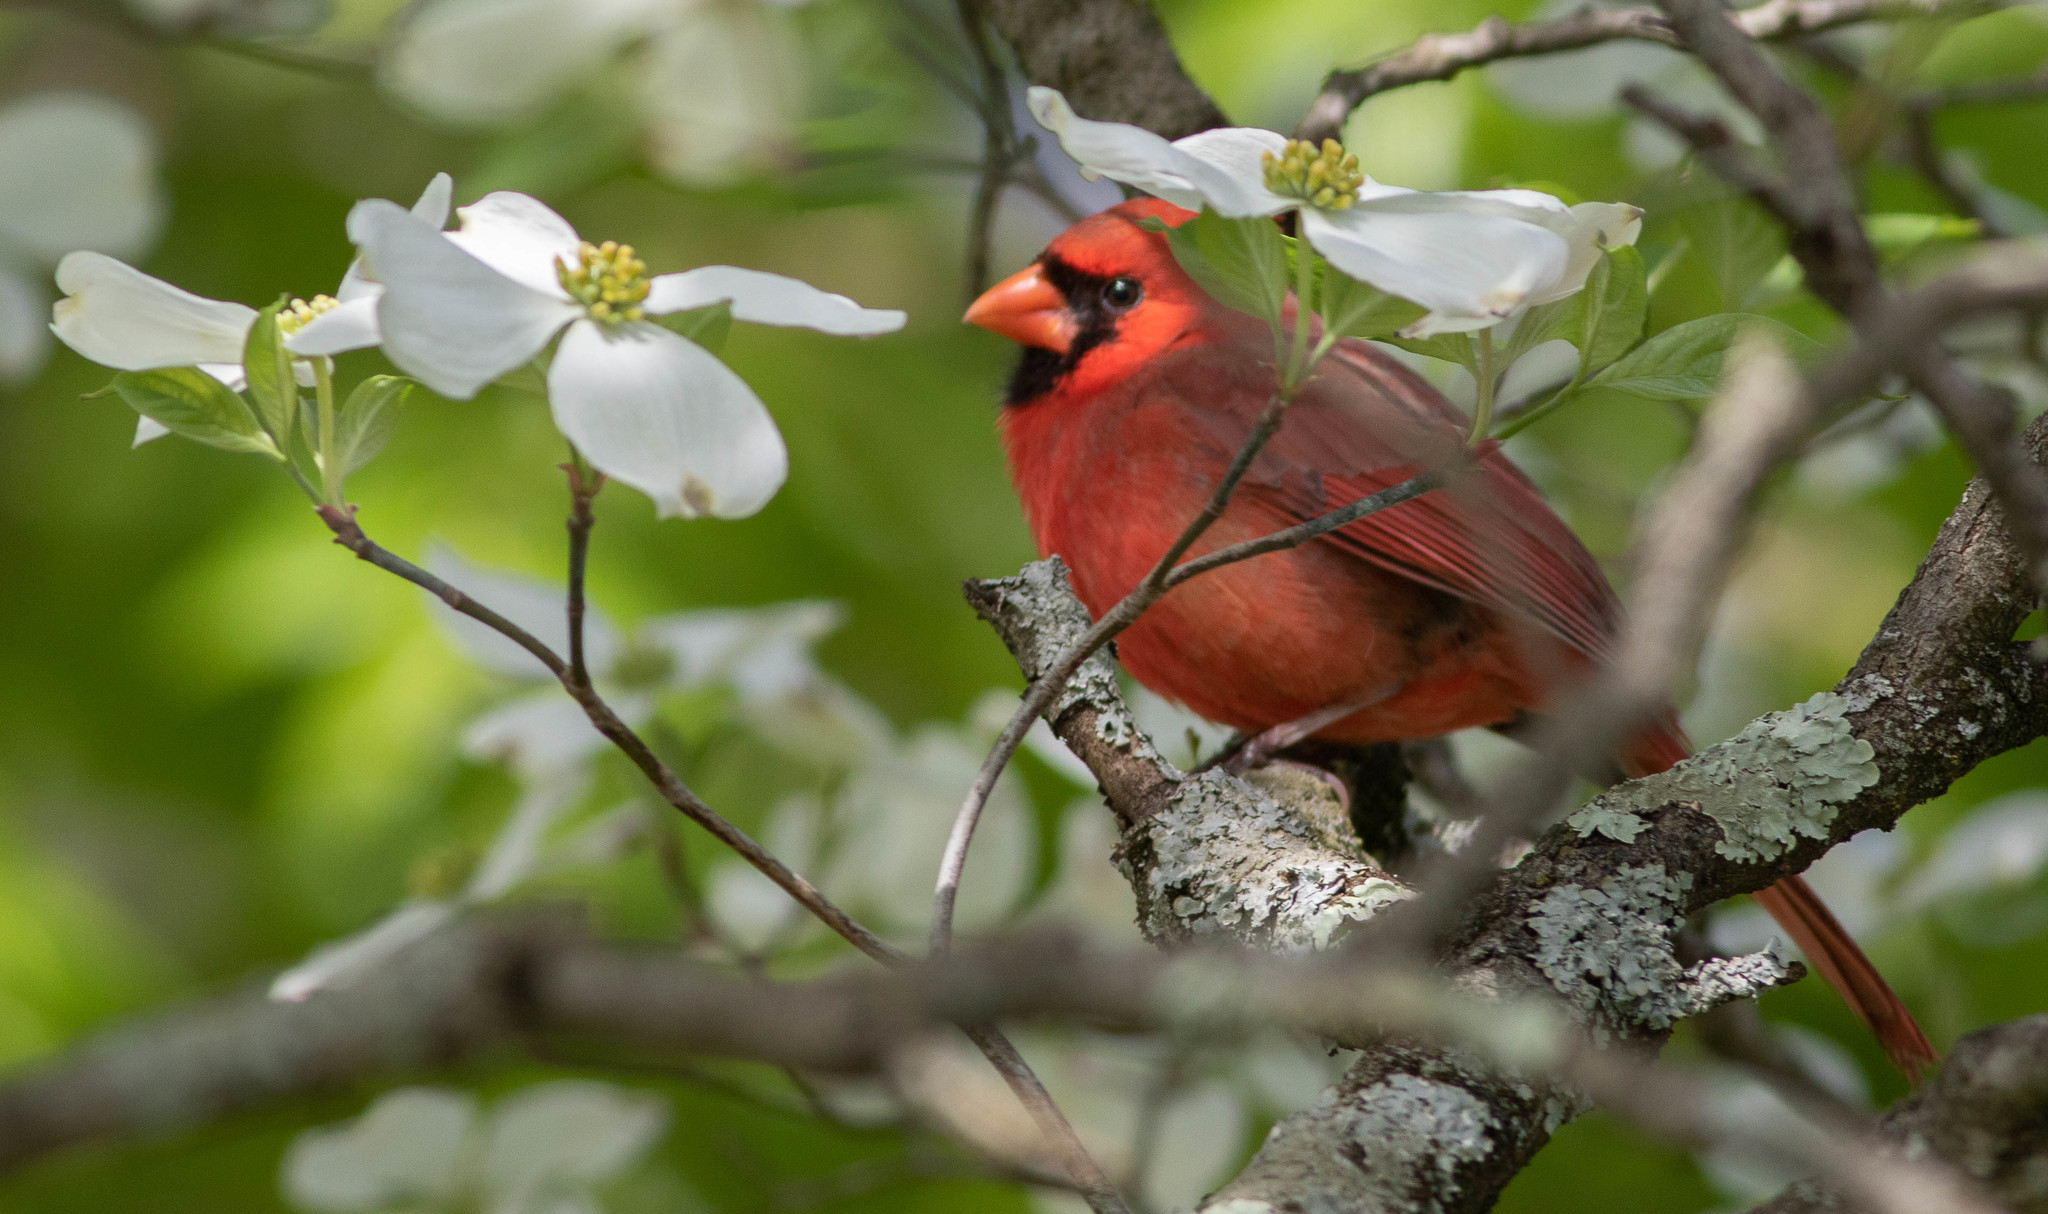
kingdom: Animalia
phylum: Chordata
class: Aves
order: Passeriformes
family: Cardinalidae
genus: Cardinalis
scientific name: Cardinalis cardinalis
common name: Northern cardinal
